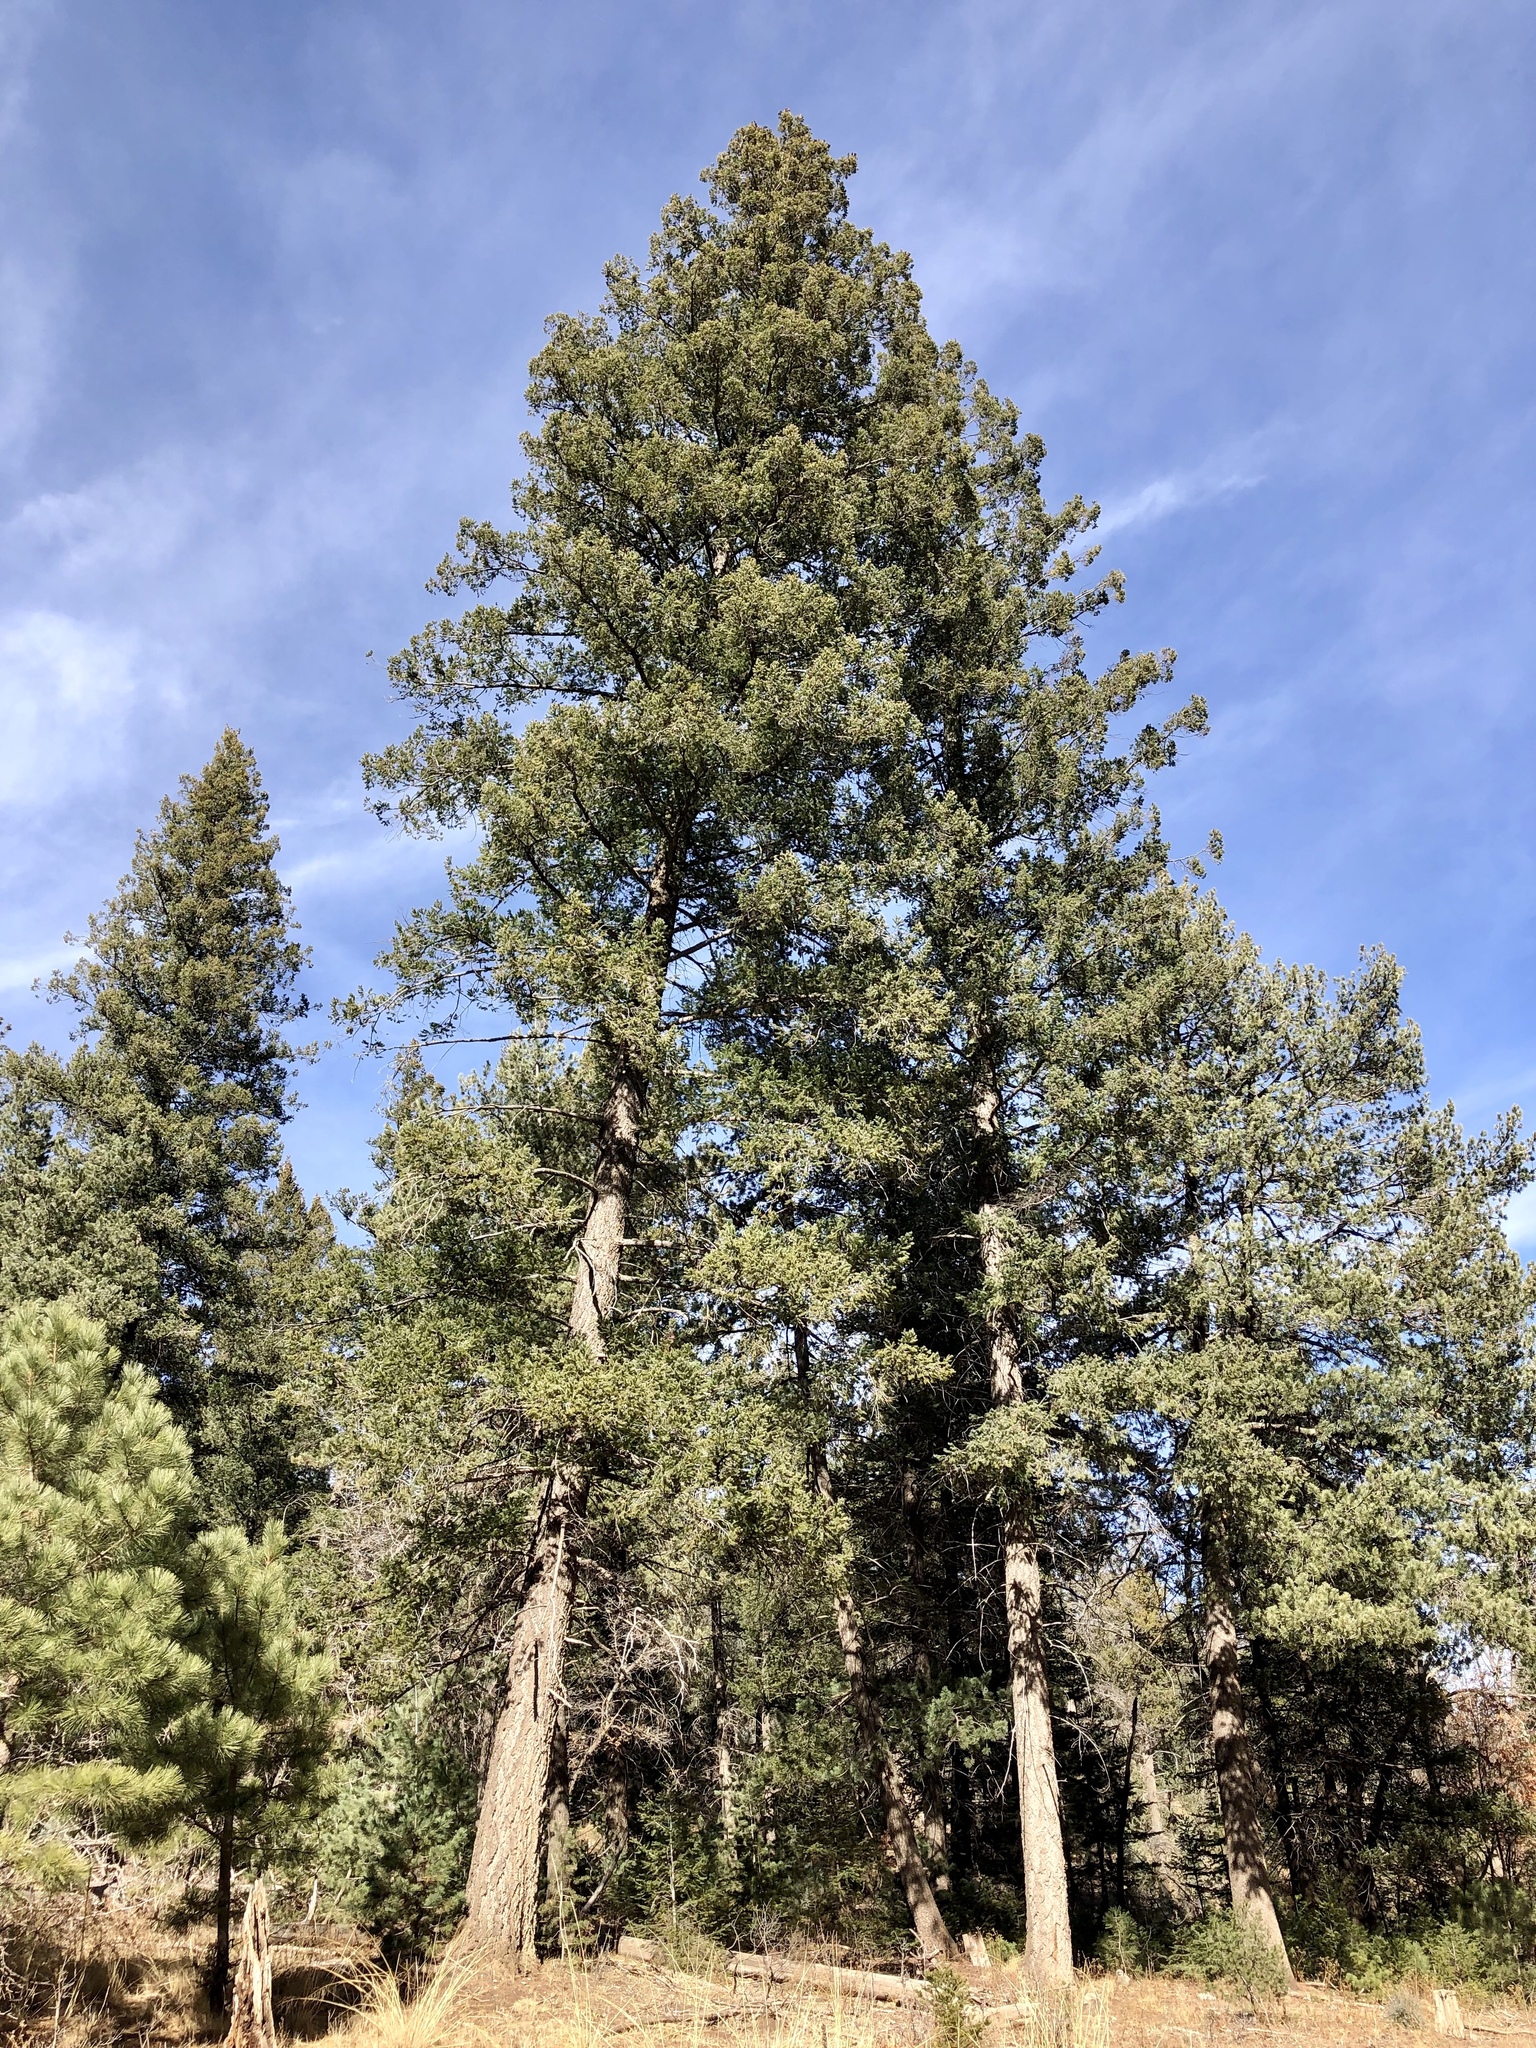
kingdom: Plantae
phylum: Tracheophyta
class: Pinopsida
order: Pinales
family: Pinaceae
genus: Pseudotsuga
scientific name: Pseudotsuga menziesii
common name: Douglas fir
